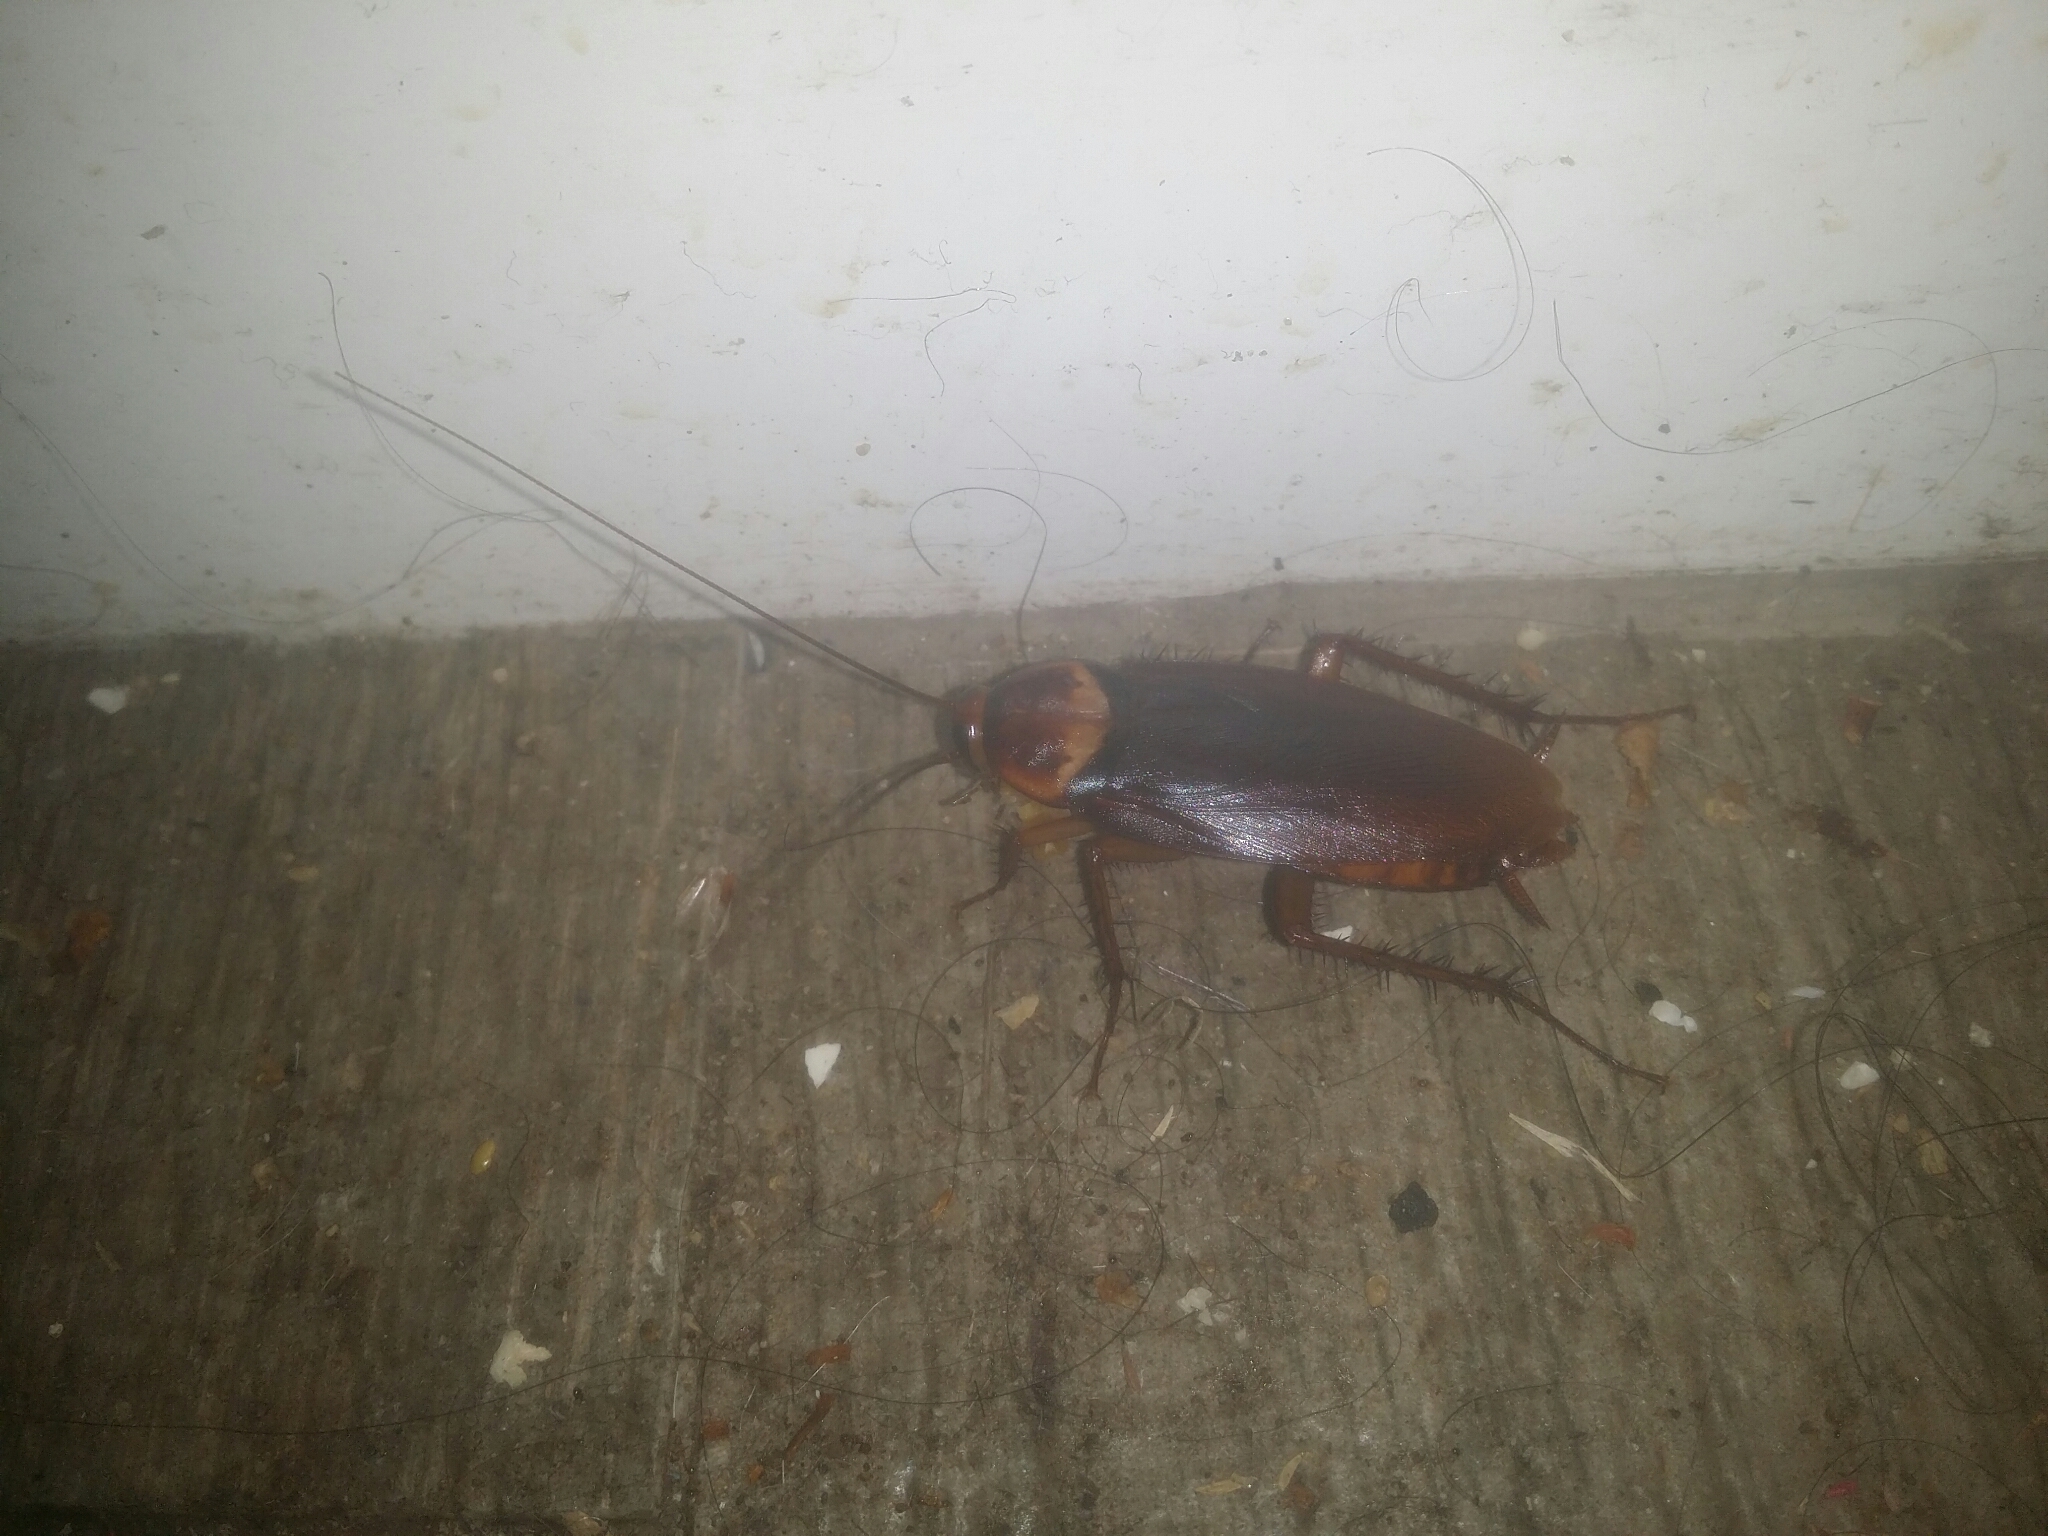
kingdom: Animalia
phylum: Arthropoda
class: Insecta
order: Blattodea
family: Blattidae
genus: Periplaneta
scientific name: Periplaneta americana
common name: American cockroach
